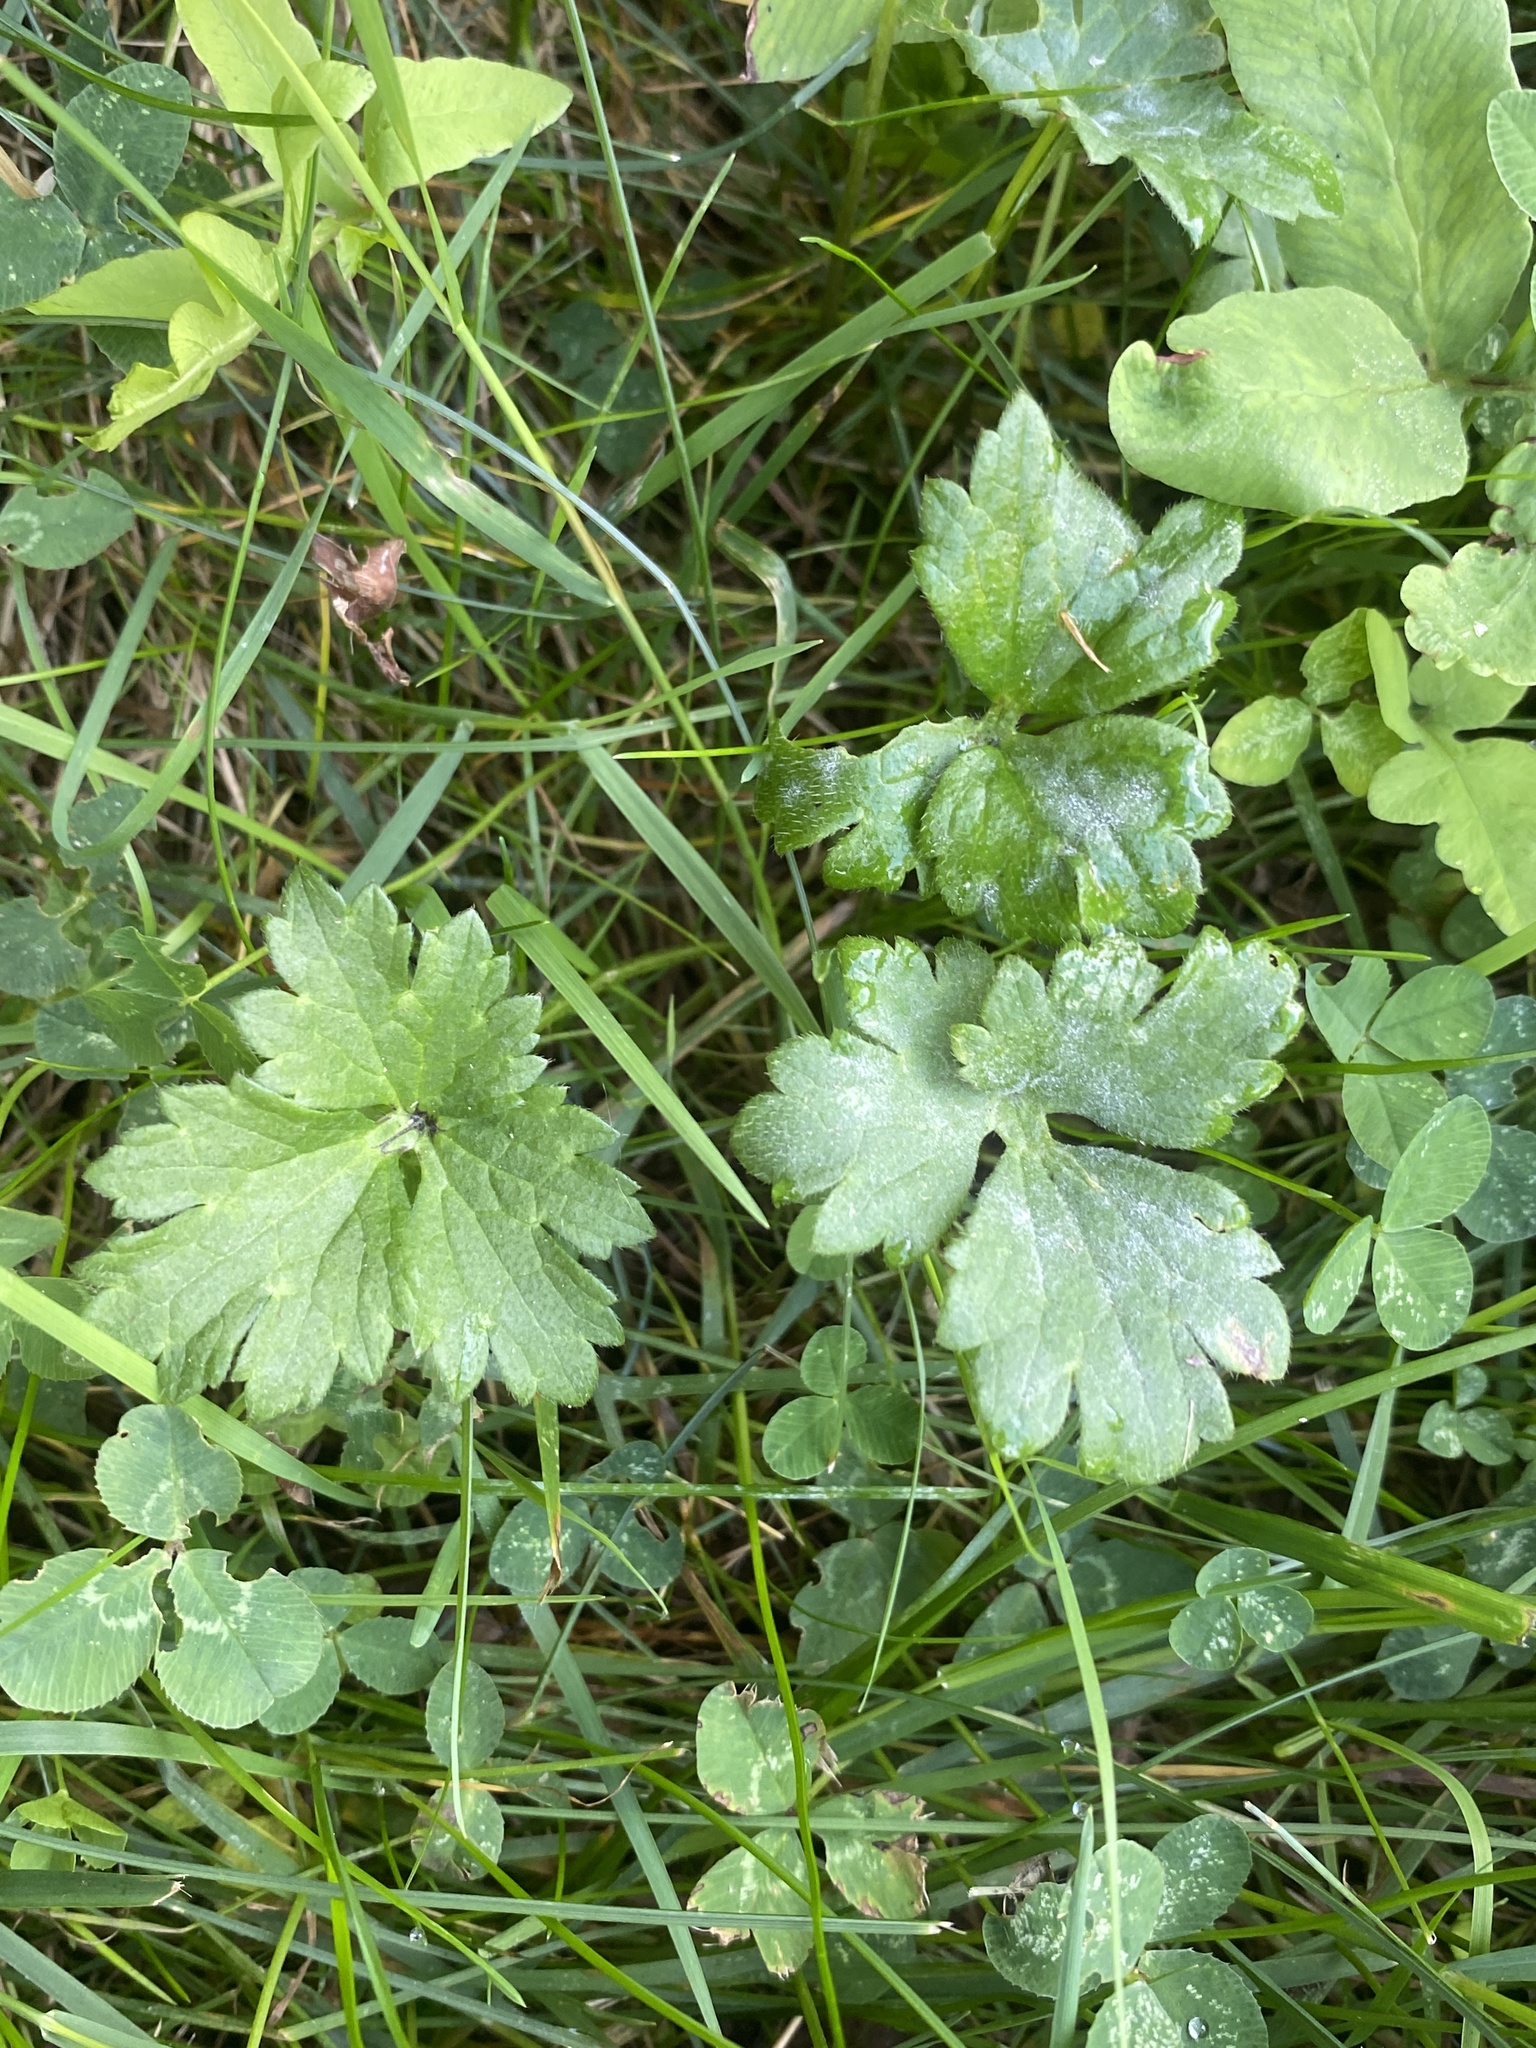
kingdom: Plantae
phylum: Tracheophyta
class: Magnoliopsida
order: Ranunculales
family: Ranunculaceae
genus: Ranunculus
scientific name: Ranunculus repens
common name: Creeping buttercup
